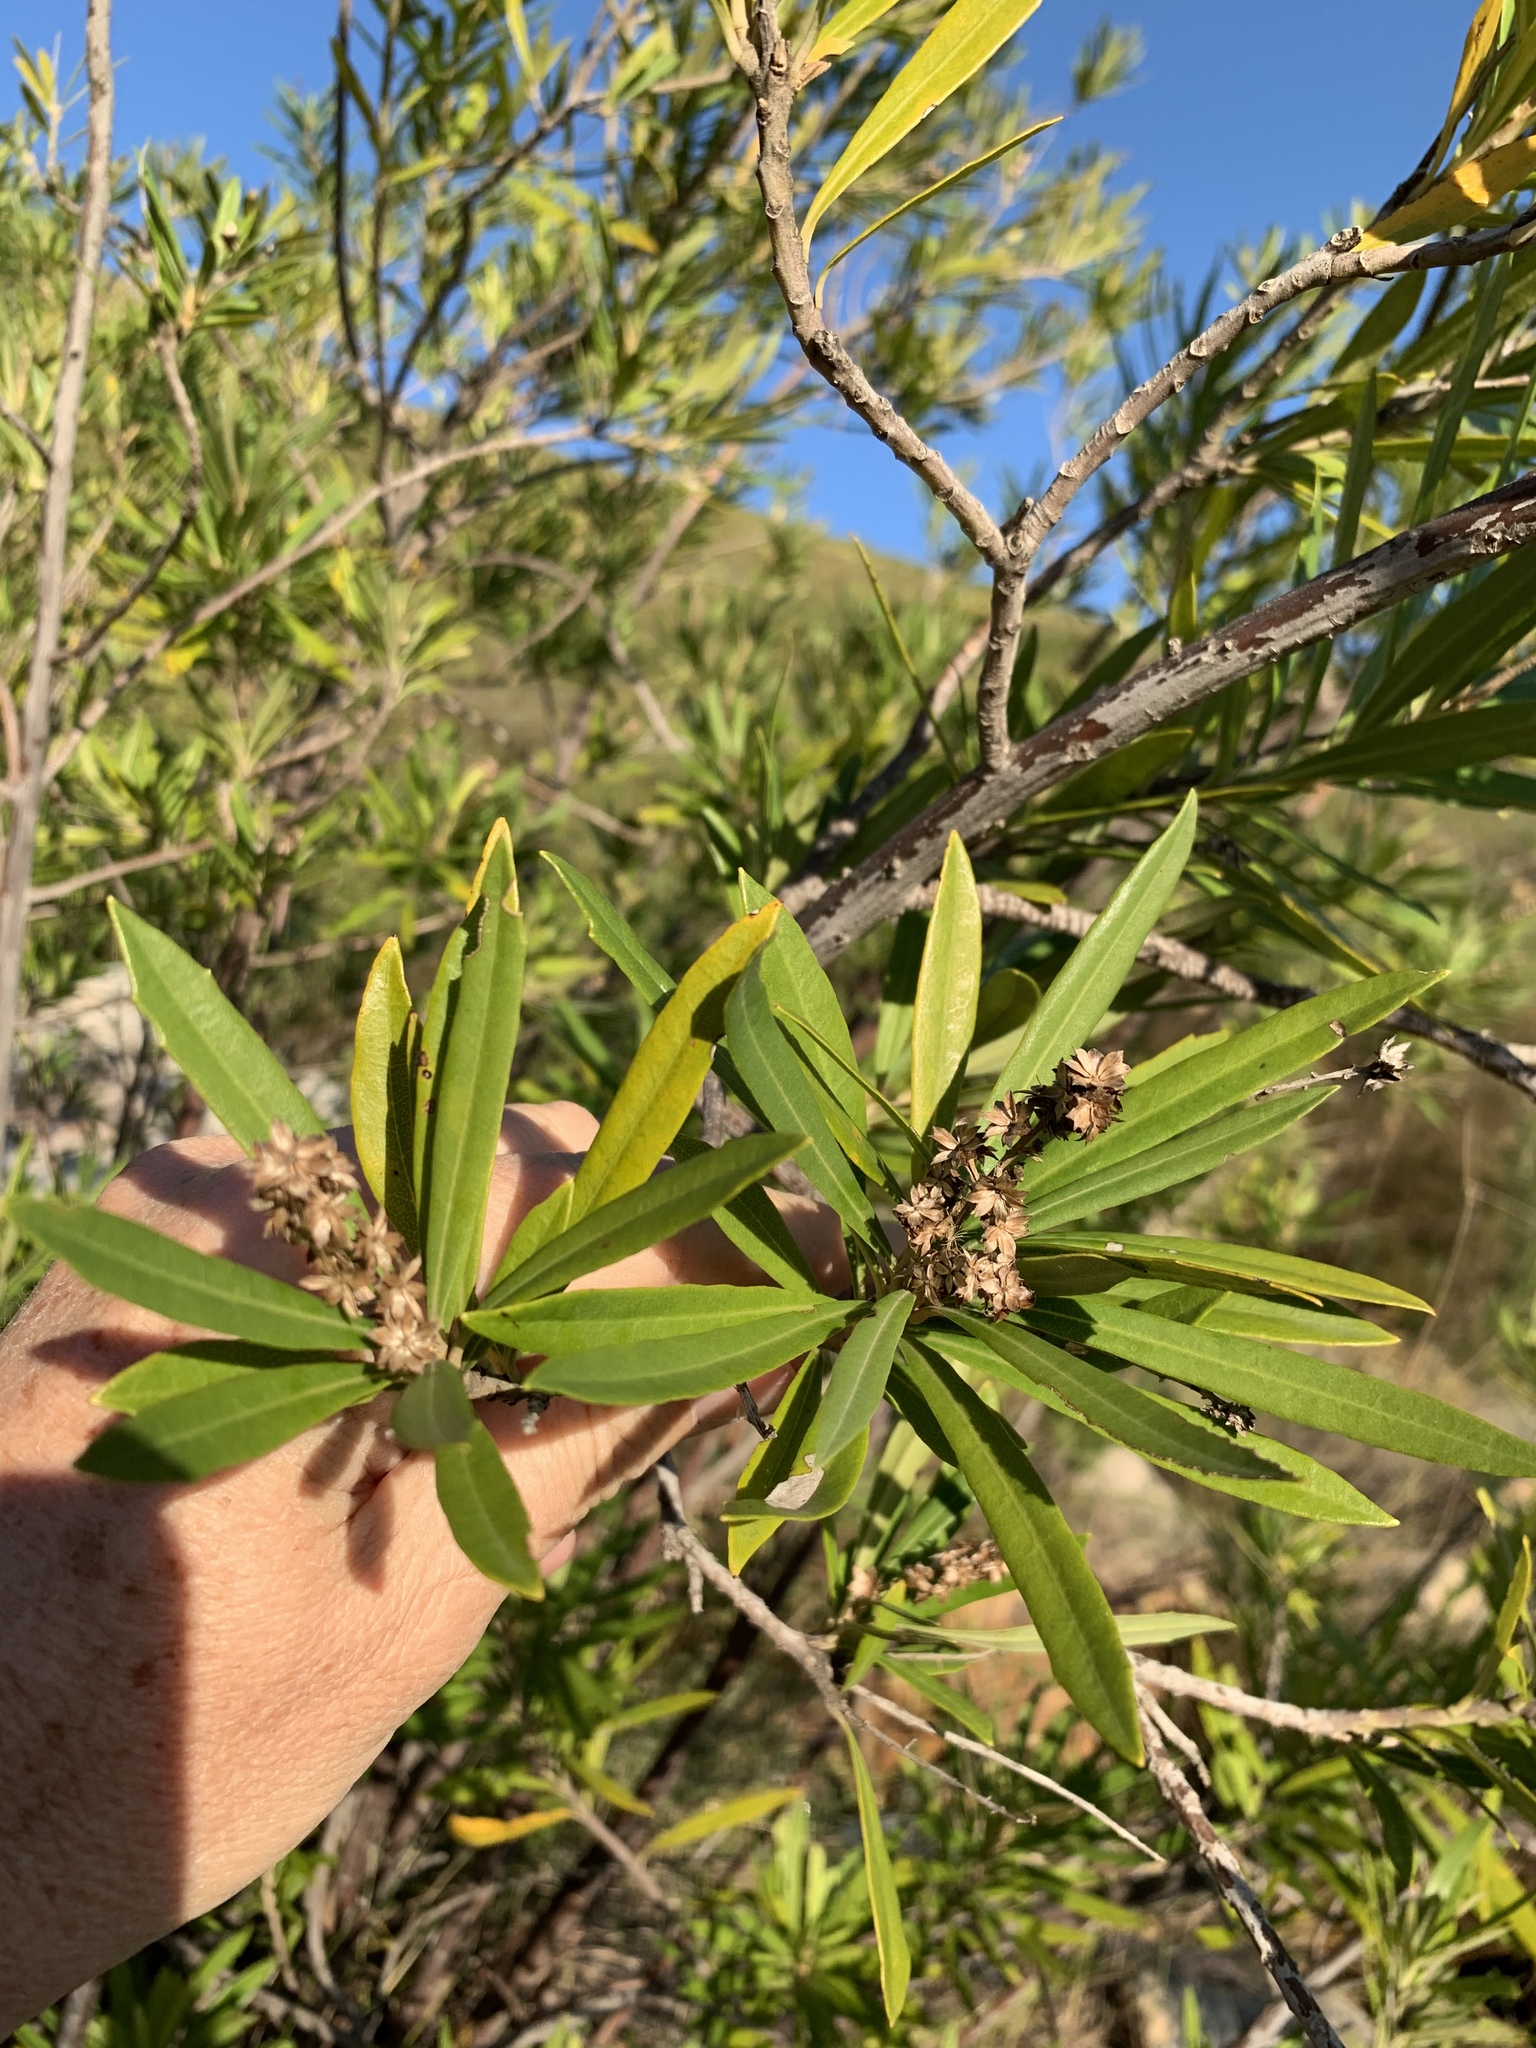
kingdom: Plantae
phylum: Tracheophyta
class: Magnoliopsida
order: Asterales
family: Asteraceae
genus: Brachylaena
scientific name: Brachylaena neriifolia
